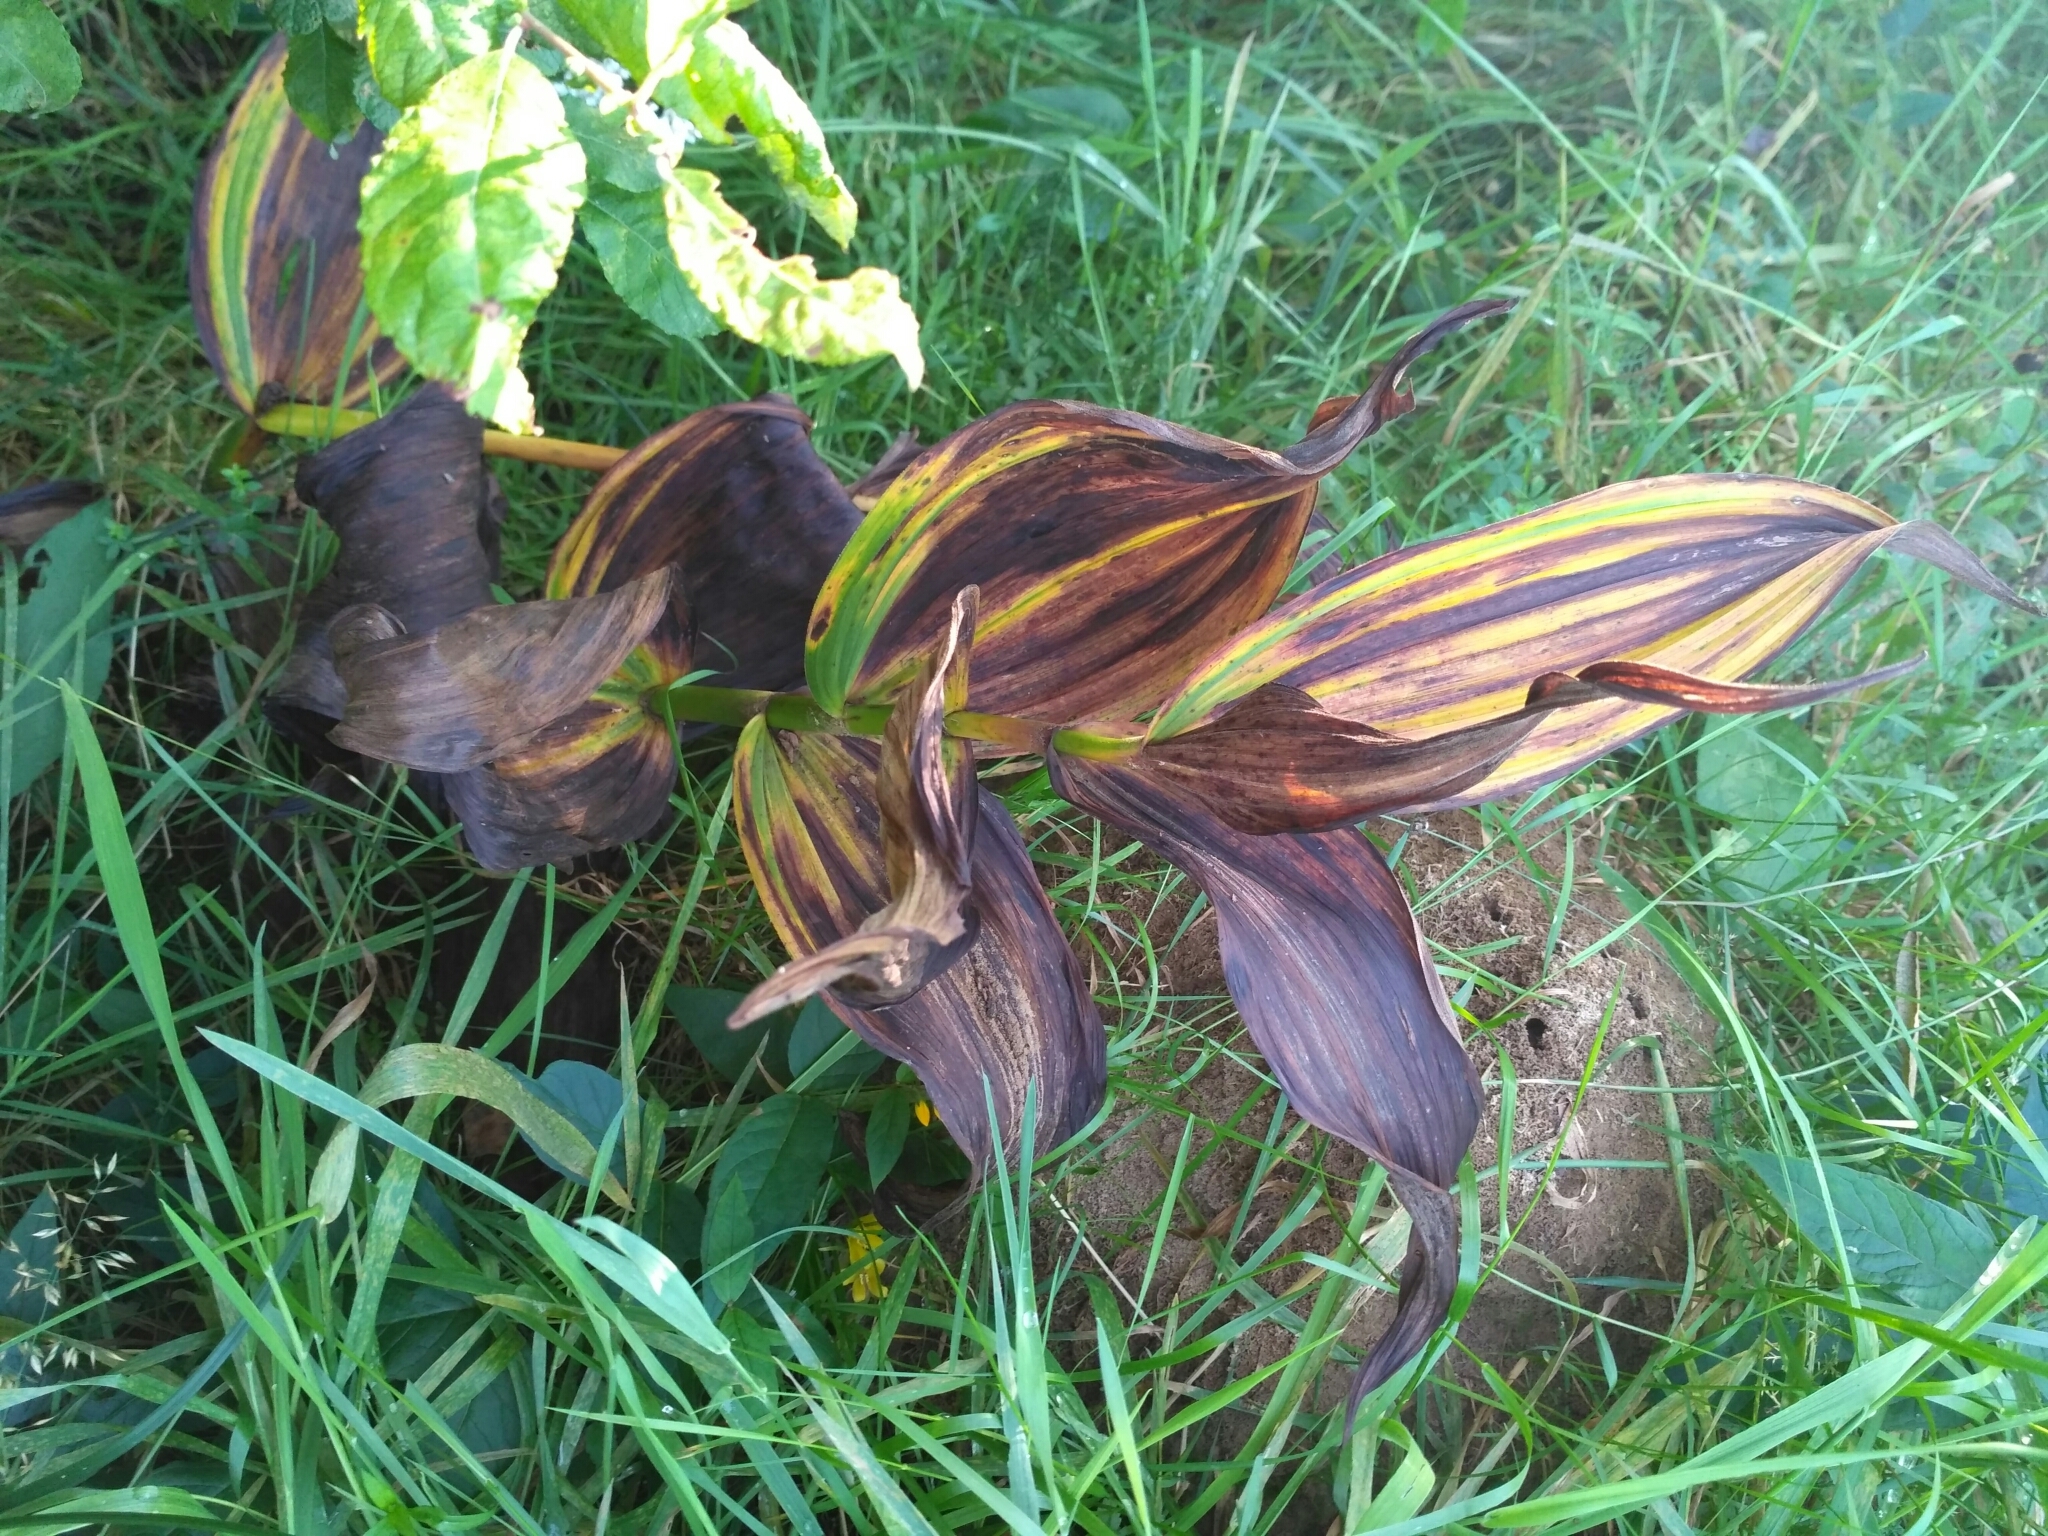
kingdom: Plantae
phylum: Tracheophyta
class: Liliopsida
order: Liliales
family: Melanthiaceae
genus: Veratrum
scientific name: Veratrum lobelianum
